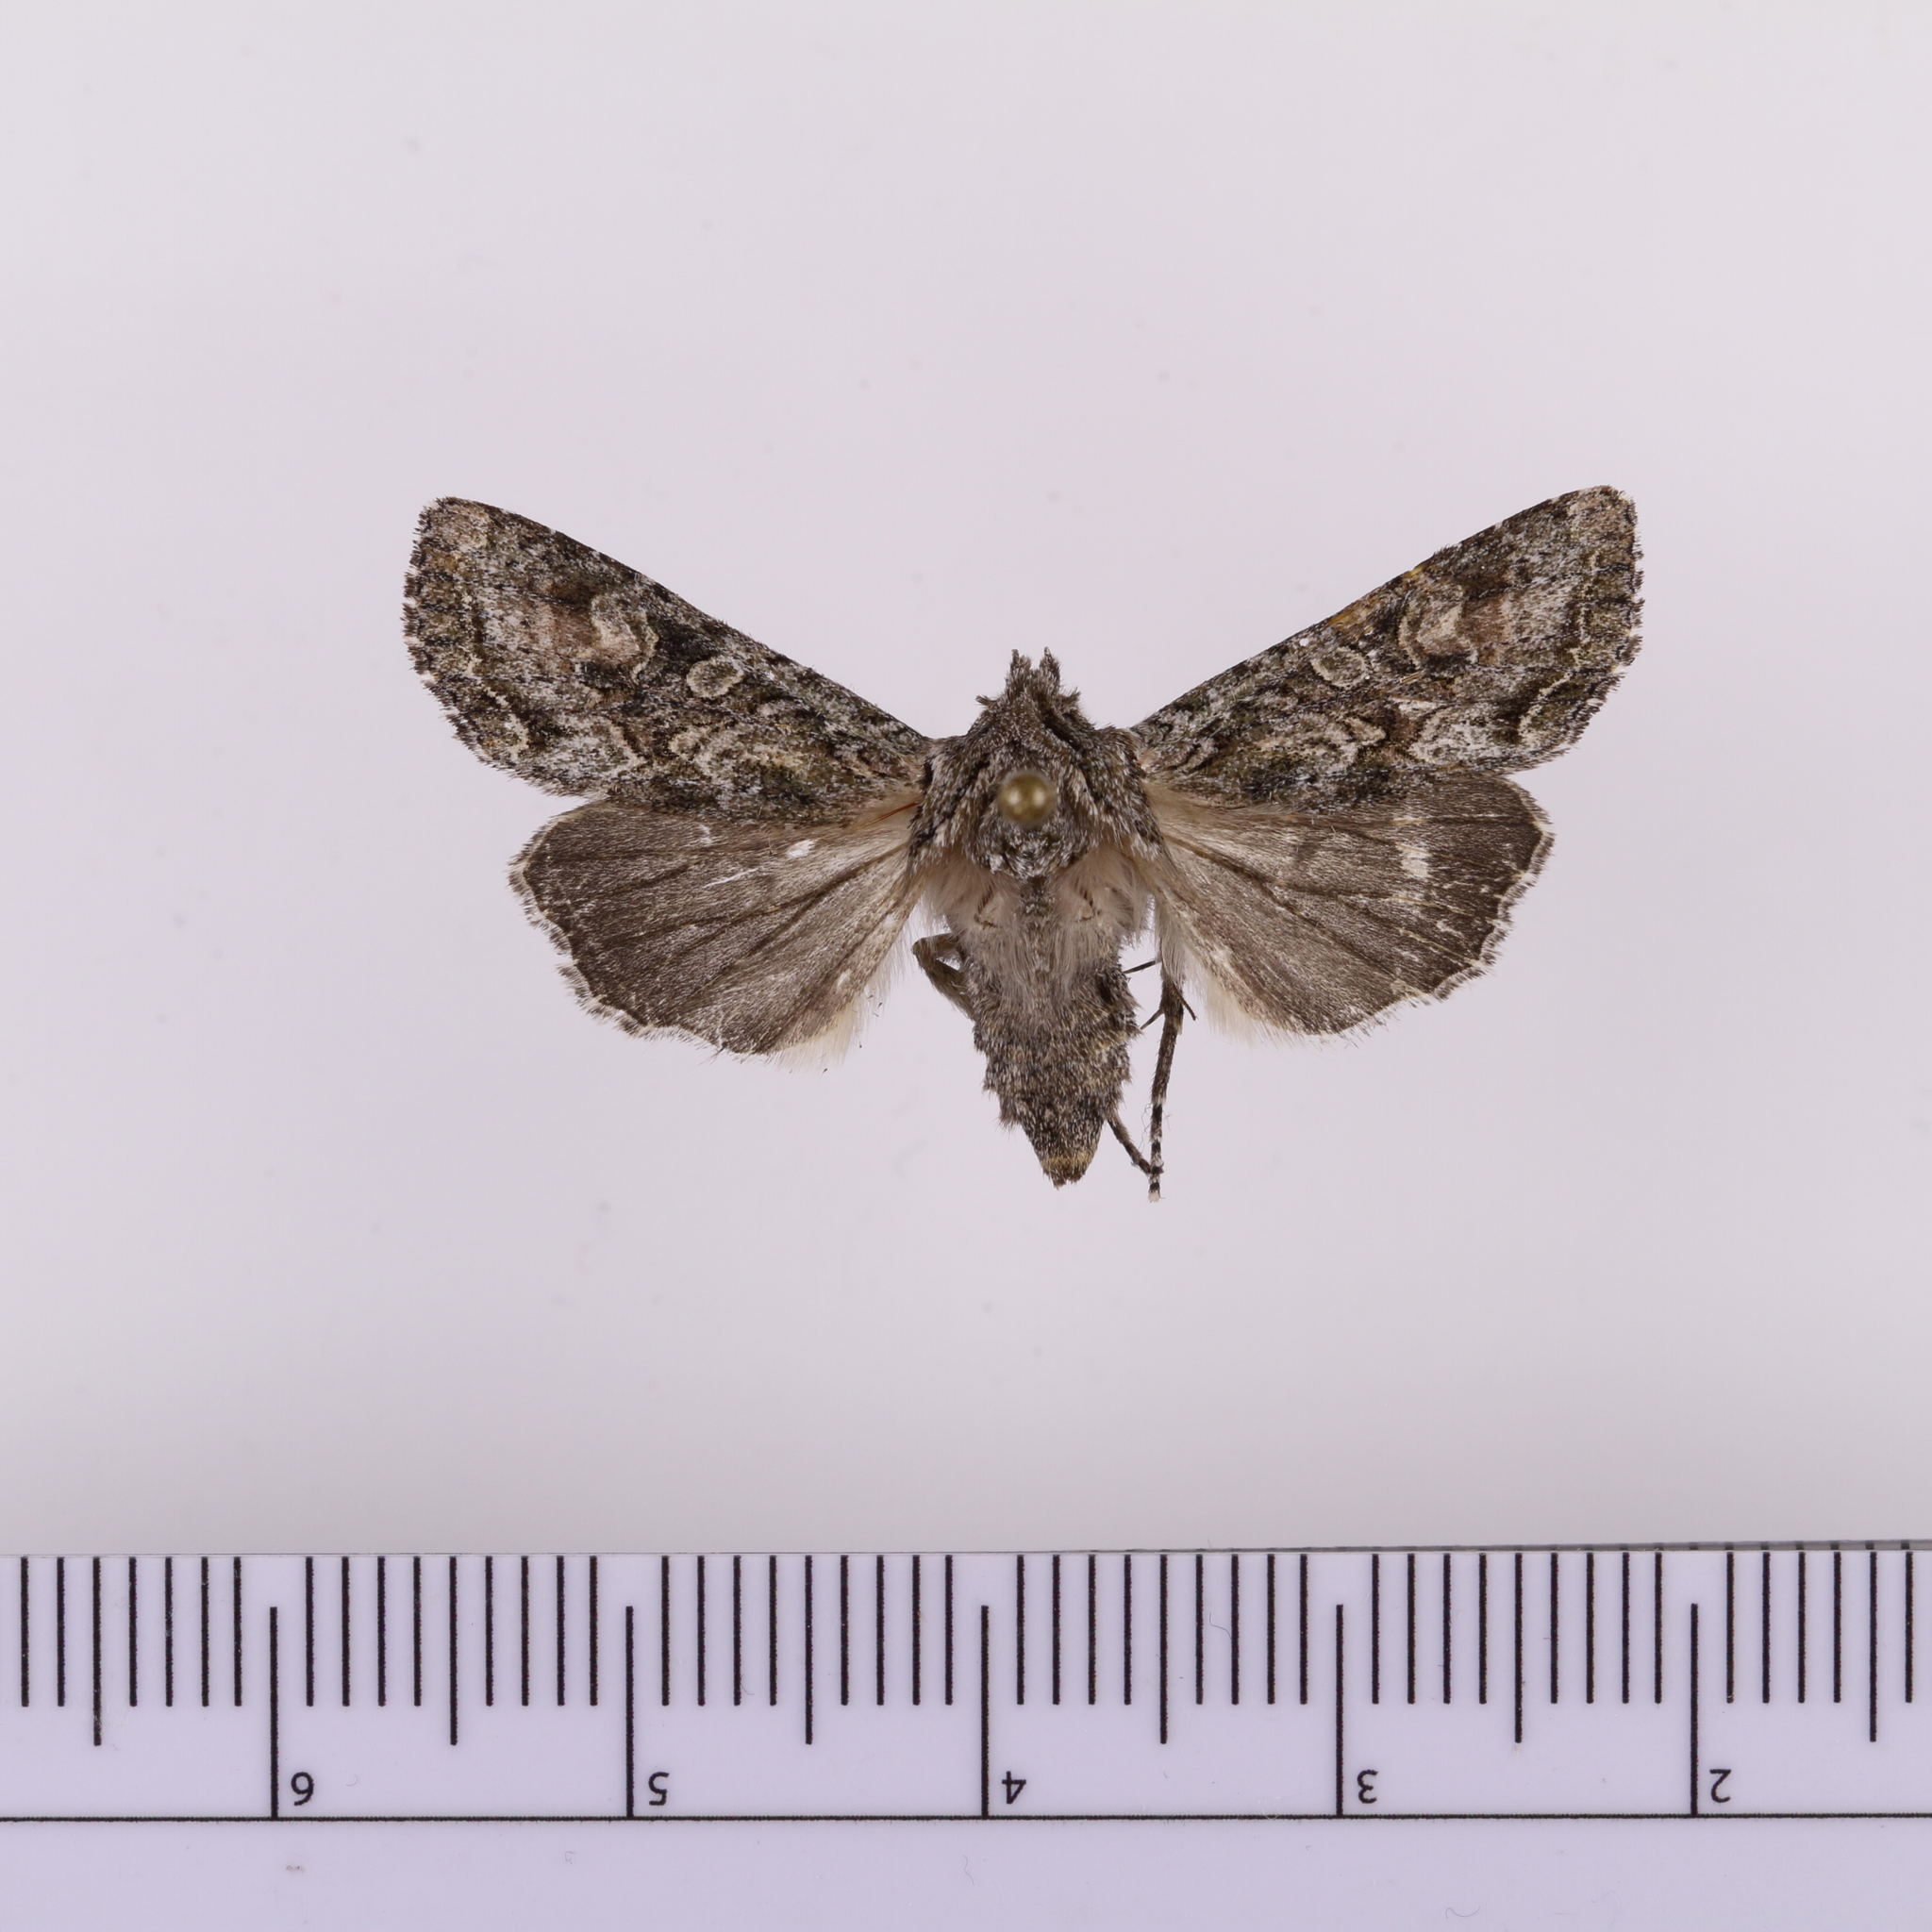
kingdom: Animalia
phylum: Arthropoda
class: Insecta
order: Lepidoptera
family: Noctuidae
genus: Ichneutica
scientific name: Ichneutica mutans
